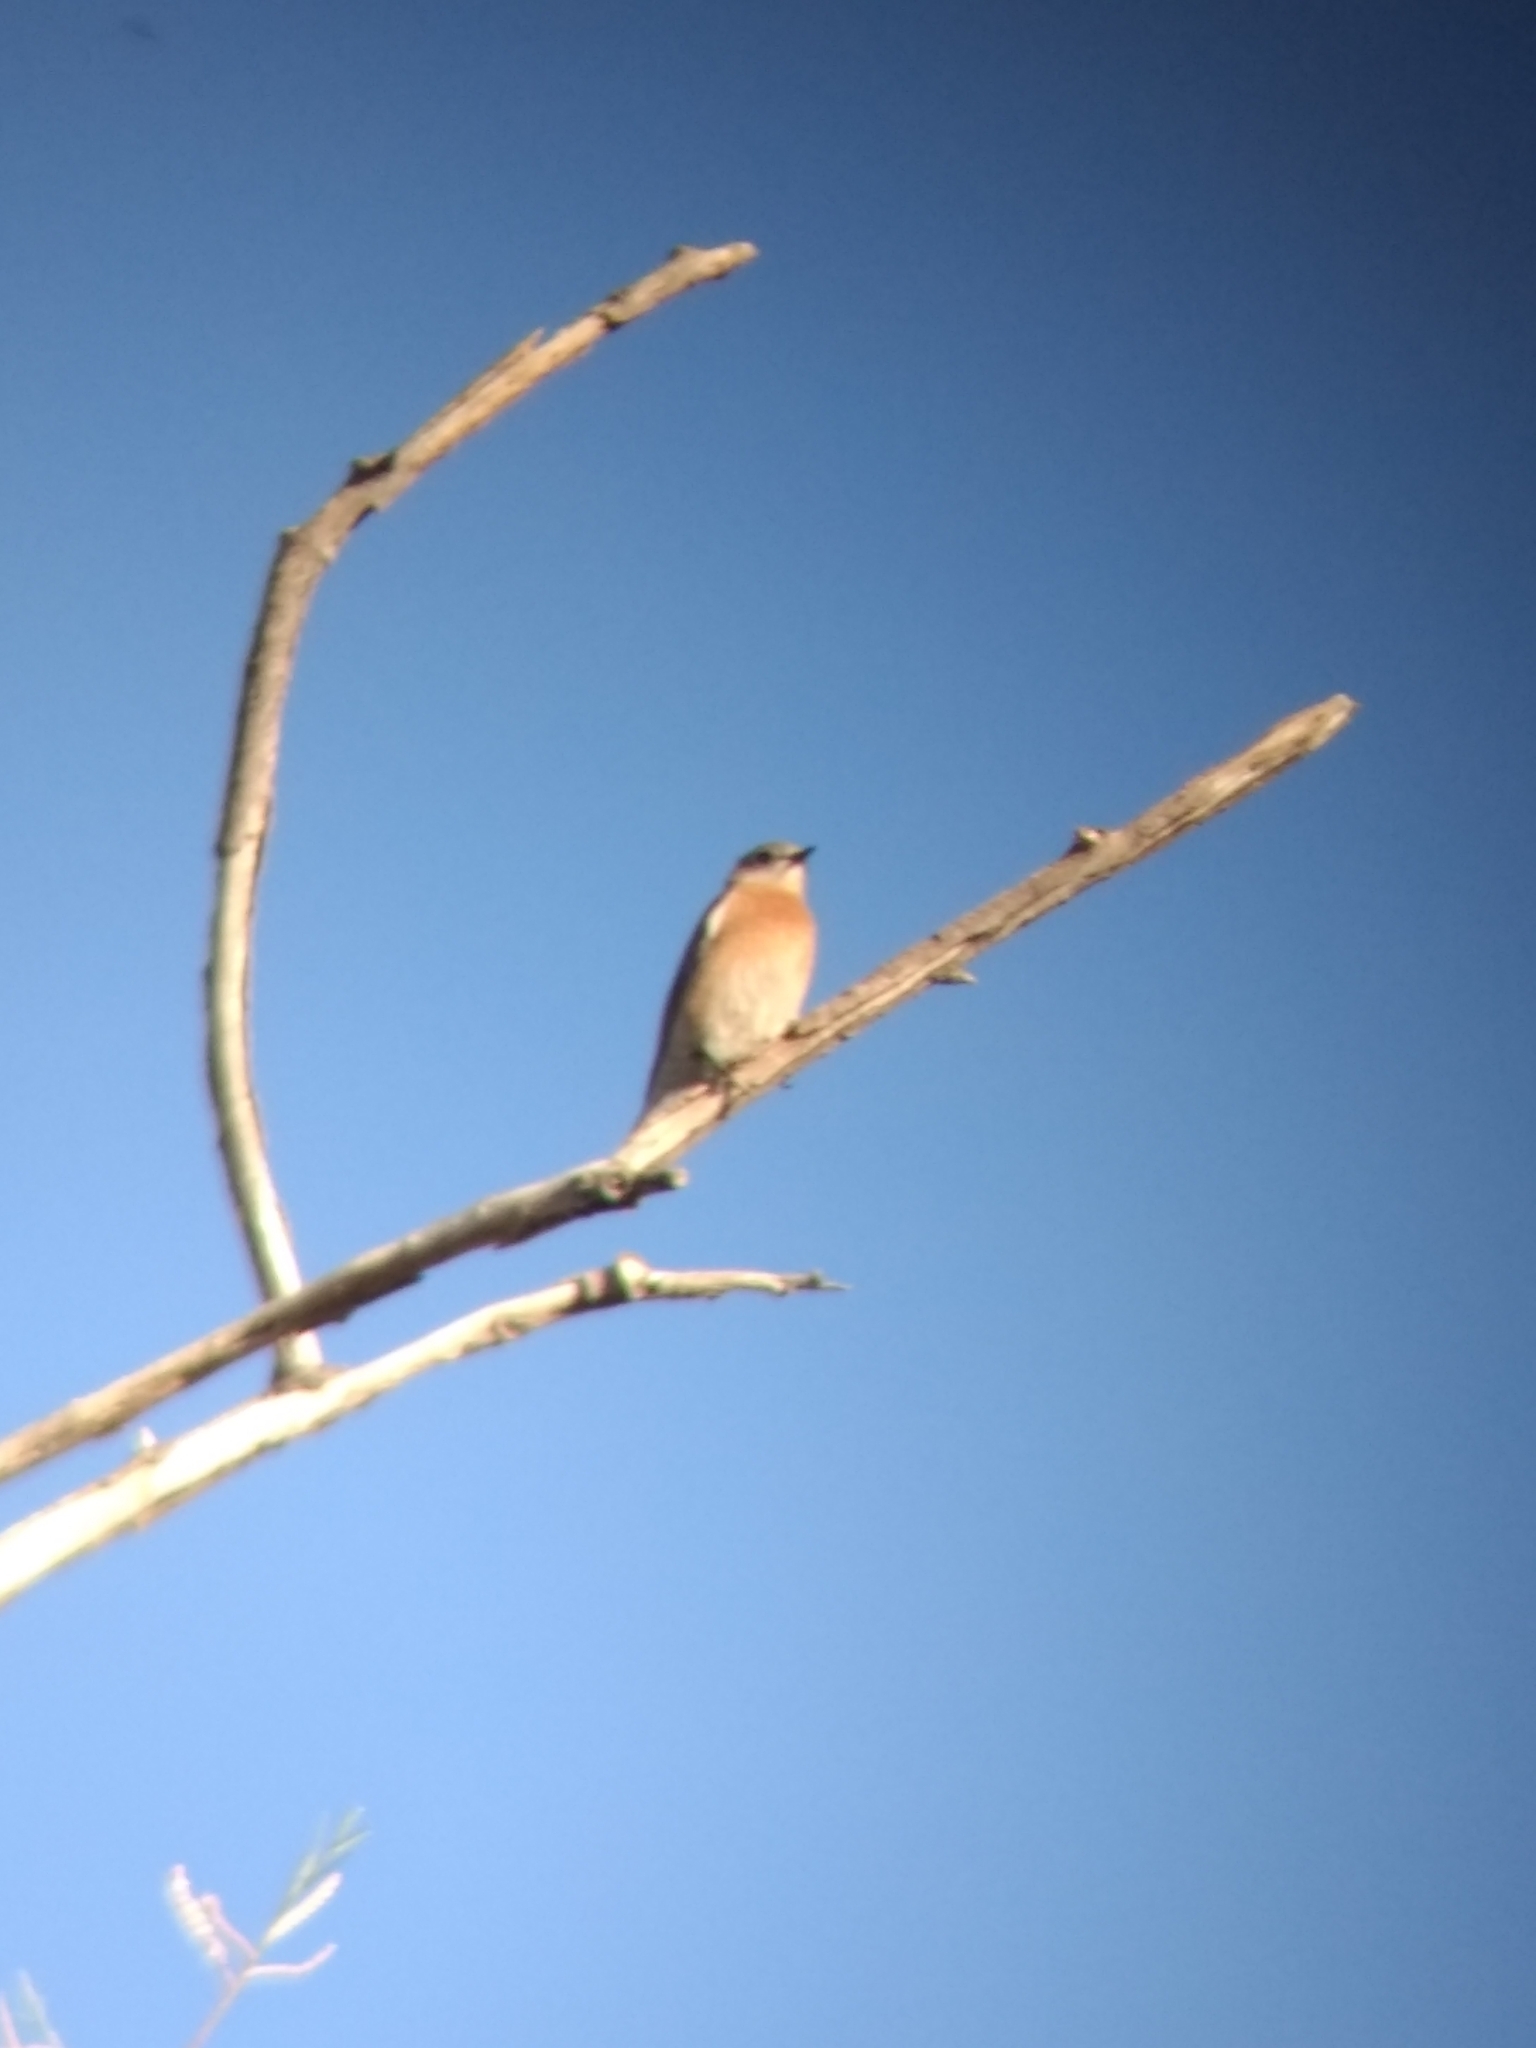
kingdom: Animalia
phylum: Chordata
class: Aves
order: Passeriformes
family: Turdidae
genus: Sialia
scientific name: Sialia mexicana
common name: Western bluebird
